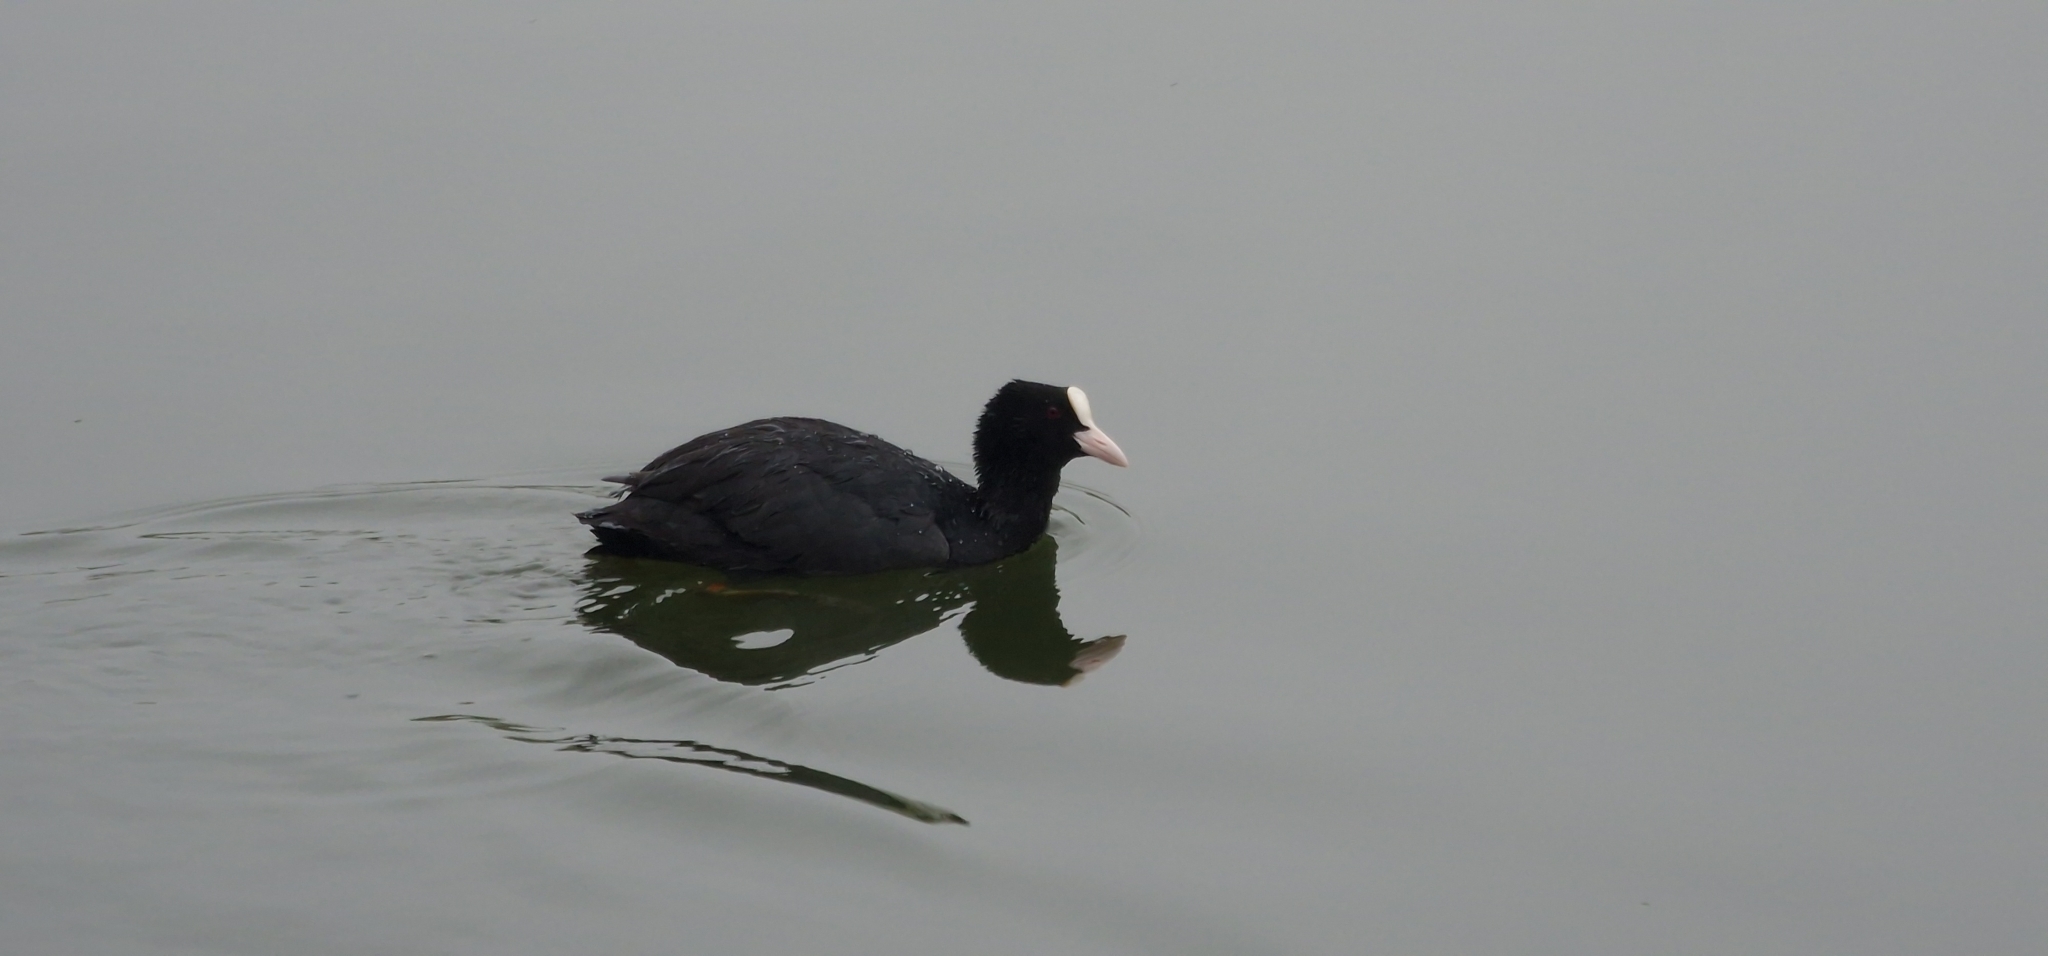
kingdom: Animalia
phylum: Chordata
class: Aves
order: Gruiformes
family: Rallidae
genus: Fulica
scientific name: Fulica atra
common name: Eurasian coot
